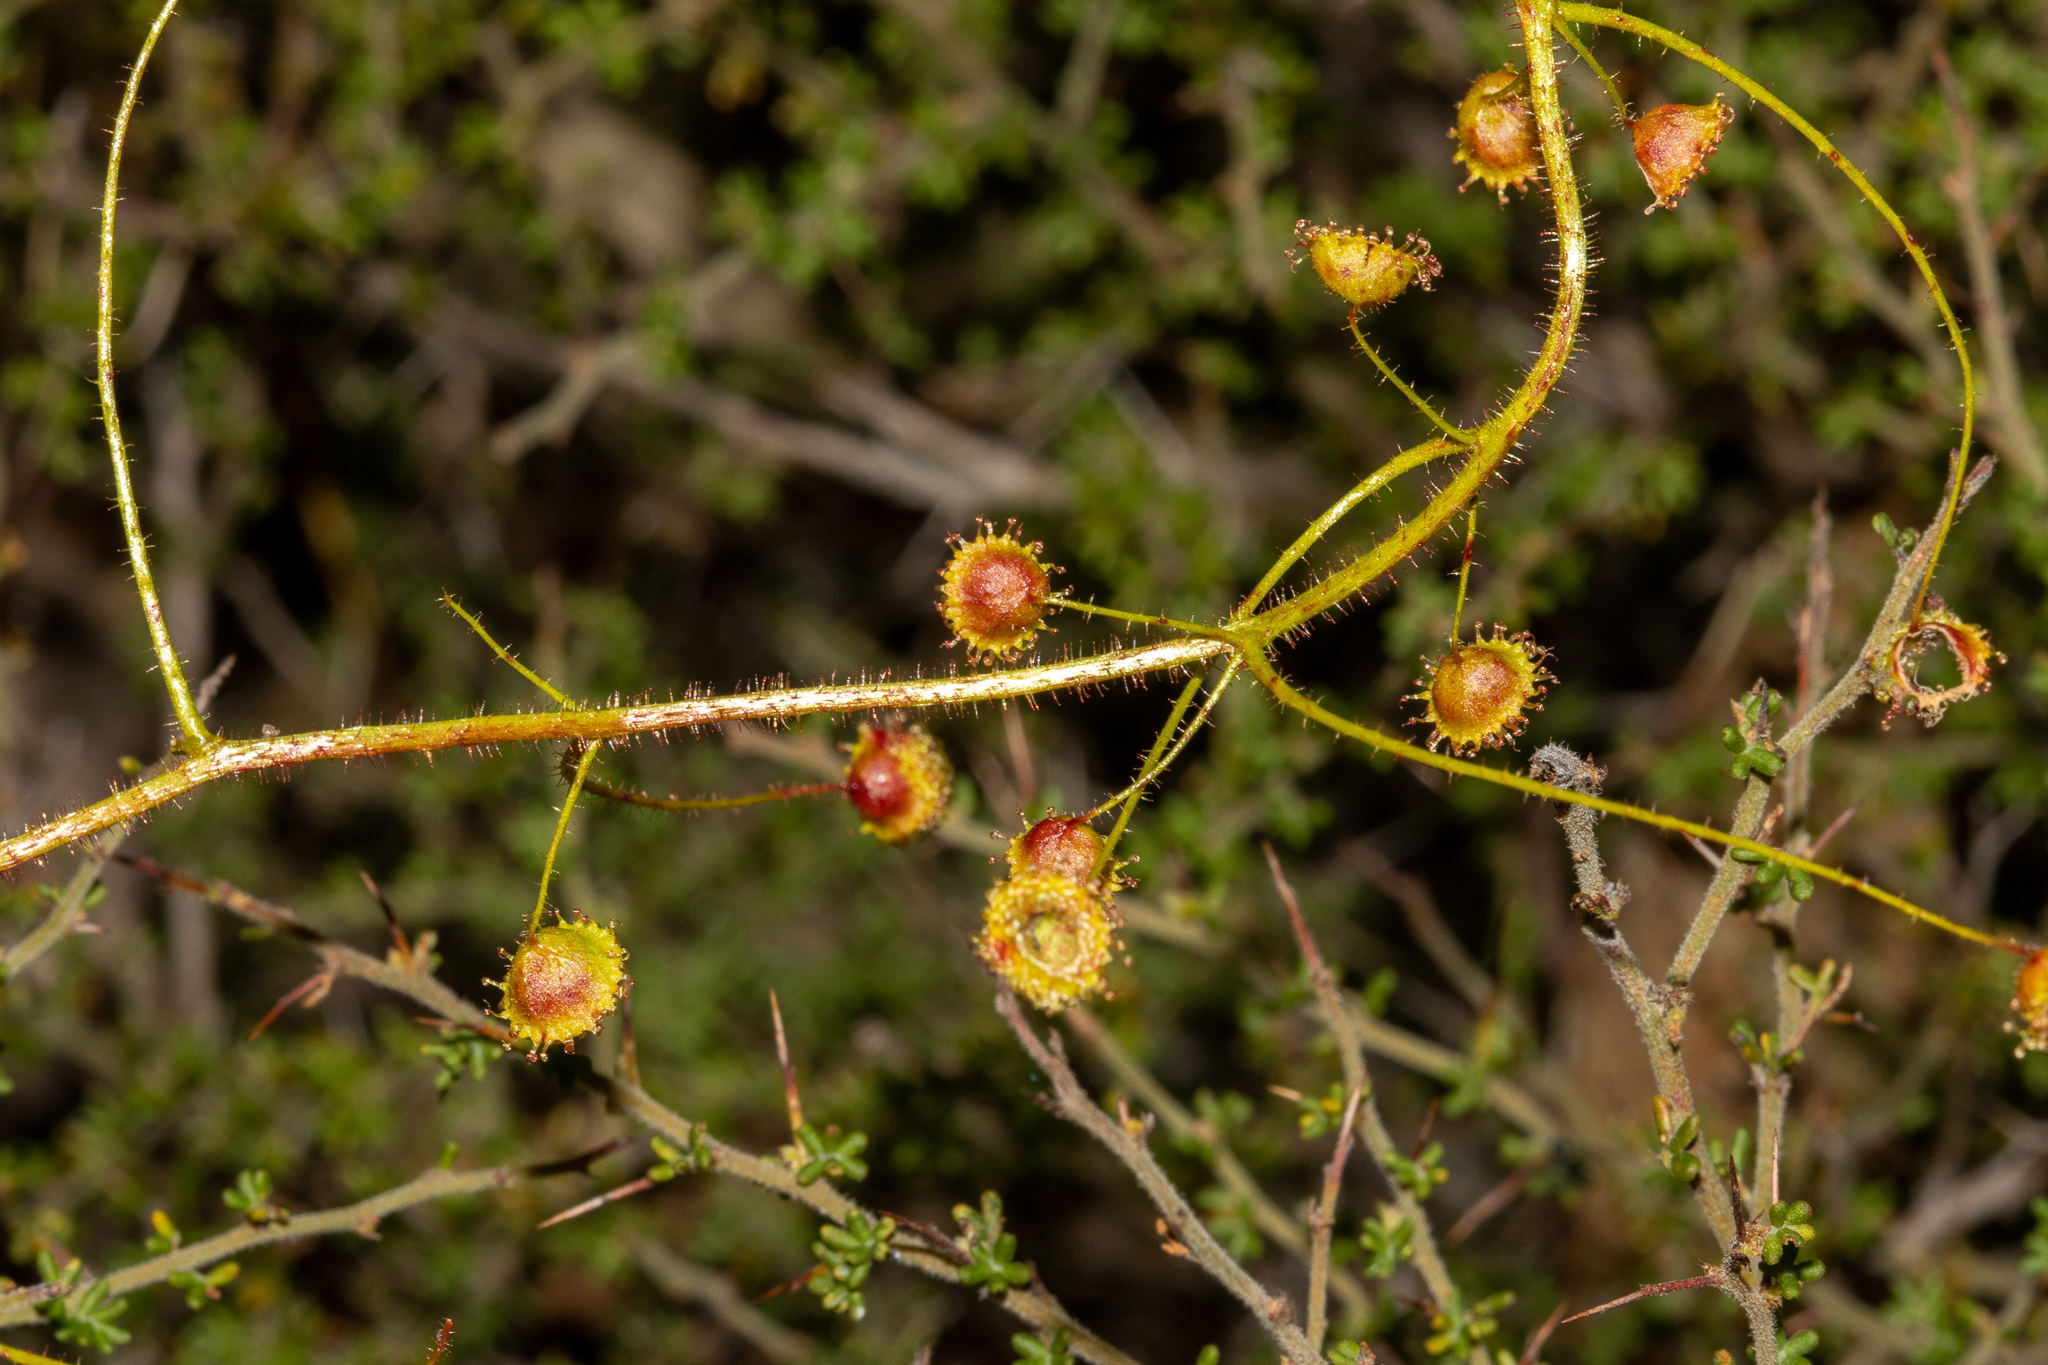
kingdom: Plantae
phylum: Tracheophyta
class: Magnoliopsida
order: Caryophyllales
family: Droseraceae
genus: Drosera
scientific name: Drosera macrantha
